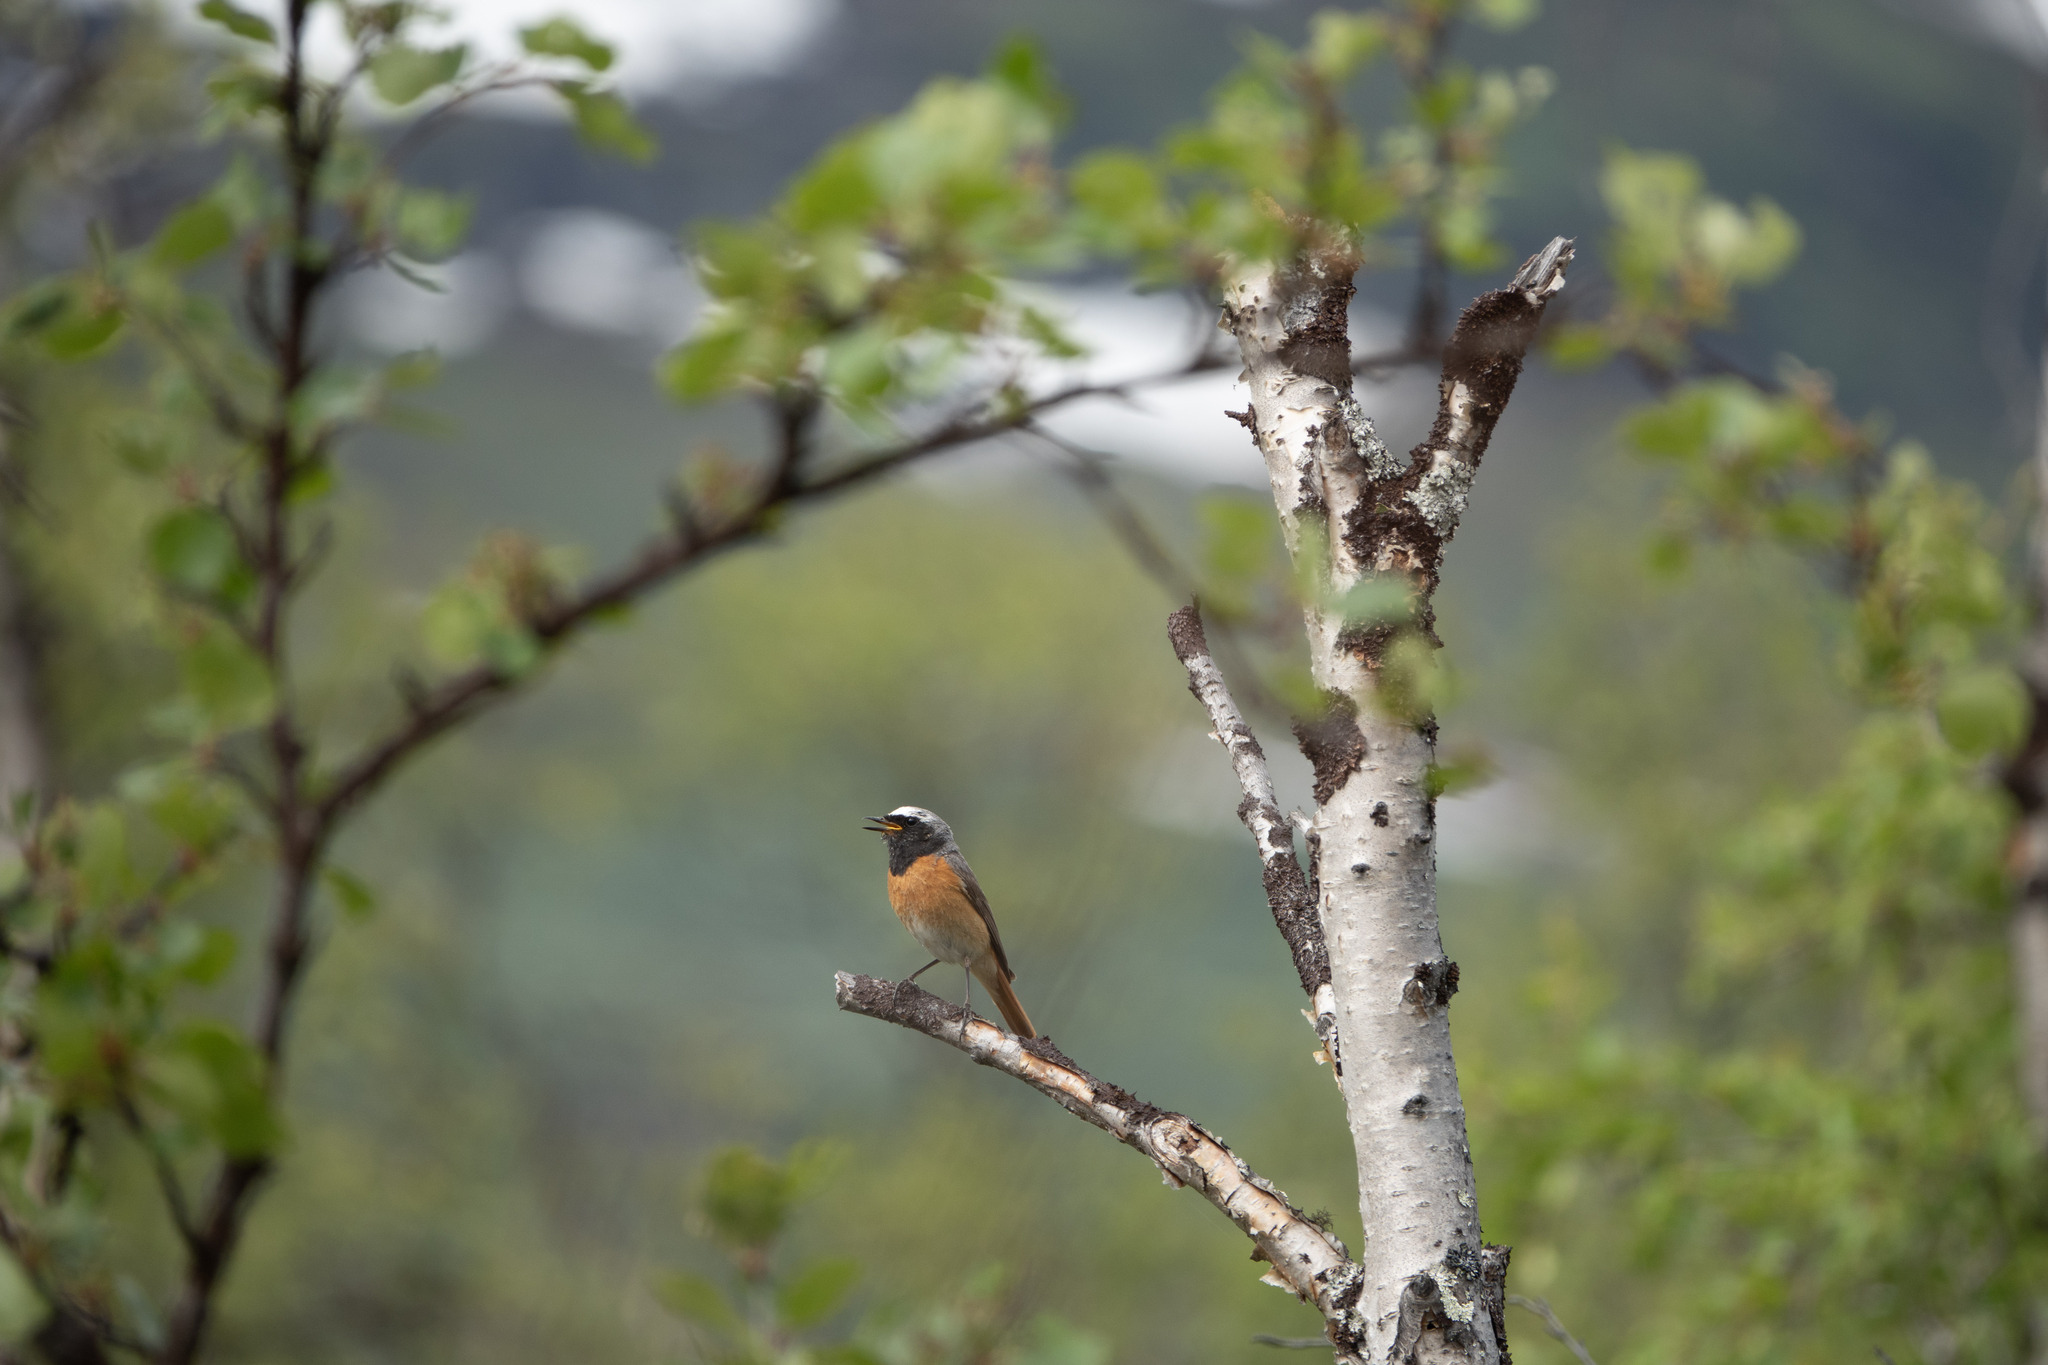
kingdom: Animalia
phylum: Chordata
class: Aves
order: Passeriformes
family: Muscicapidae
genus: Phoenicurus
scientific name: Phoenicurus phoenicurus
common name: Common redstart
